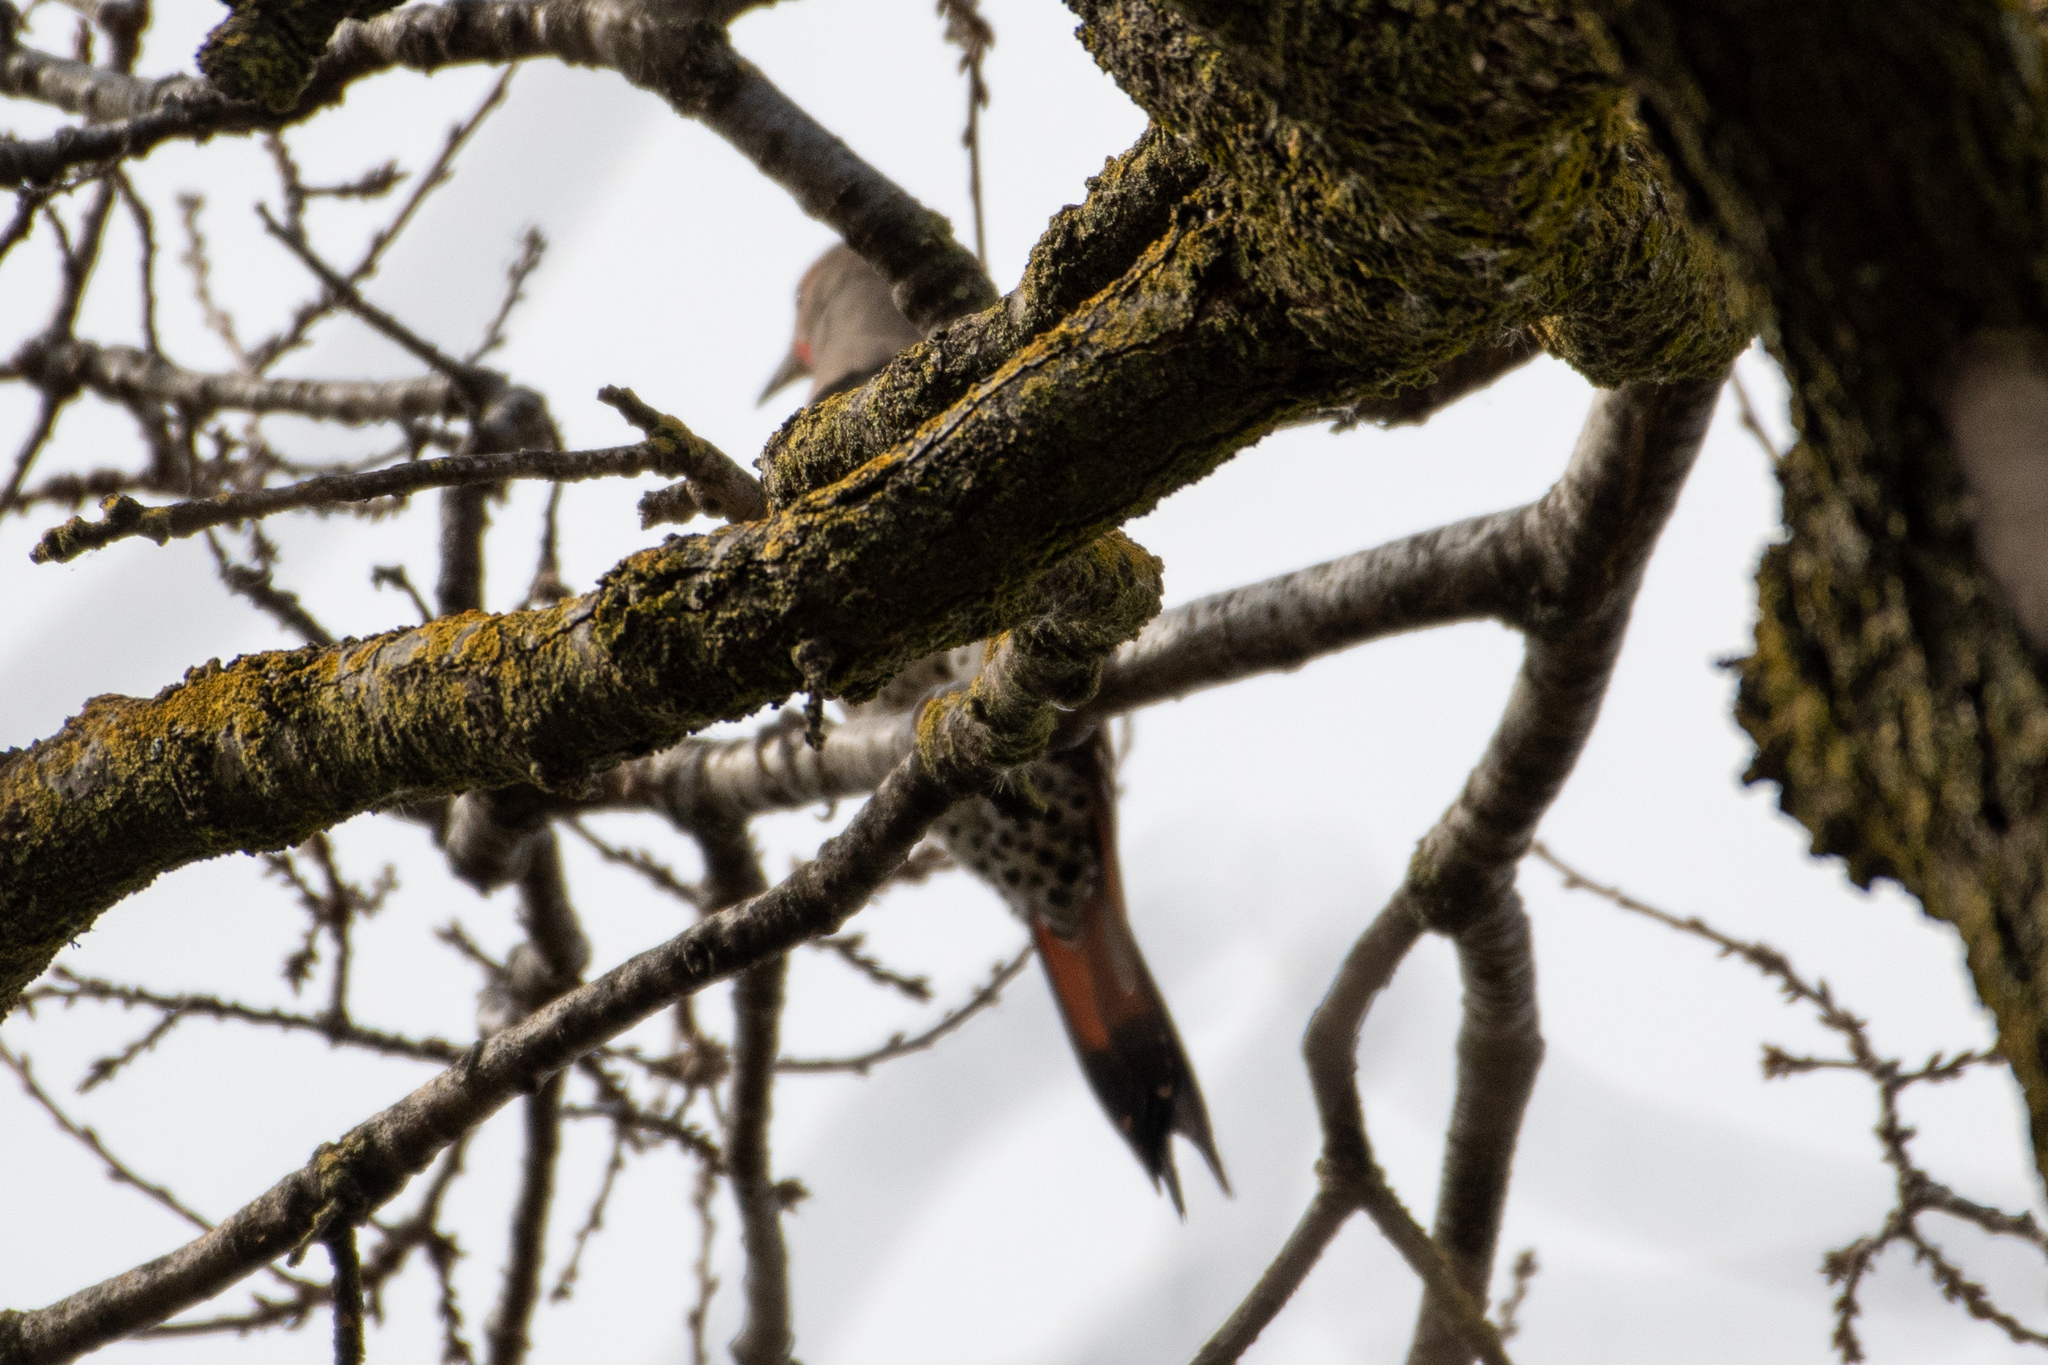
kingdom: Animalia
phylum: Chordata
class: Aves
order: Piciformes
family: Picidae
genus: Colaptes
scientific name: Colaptes auratus
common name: Northern flicker
